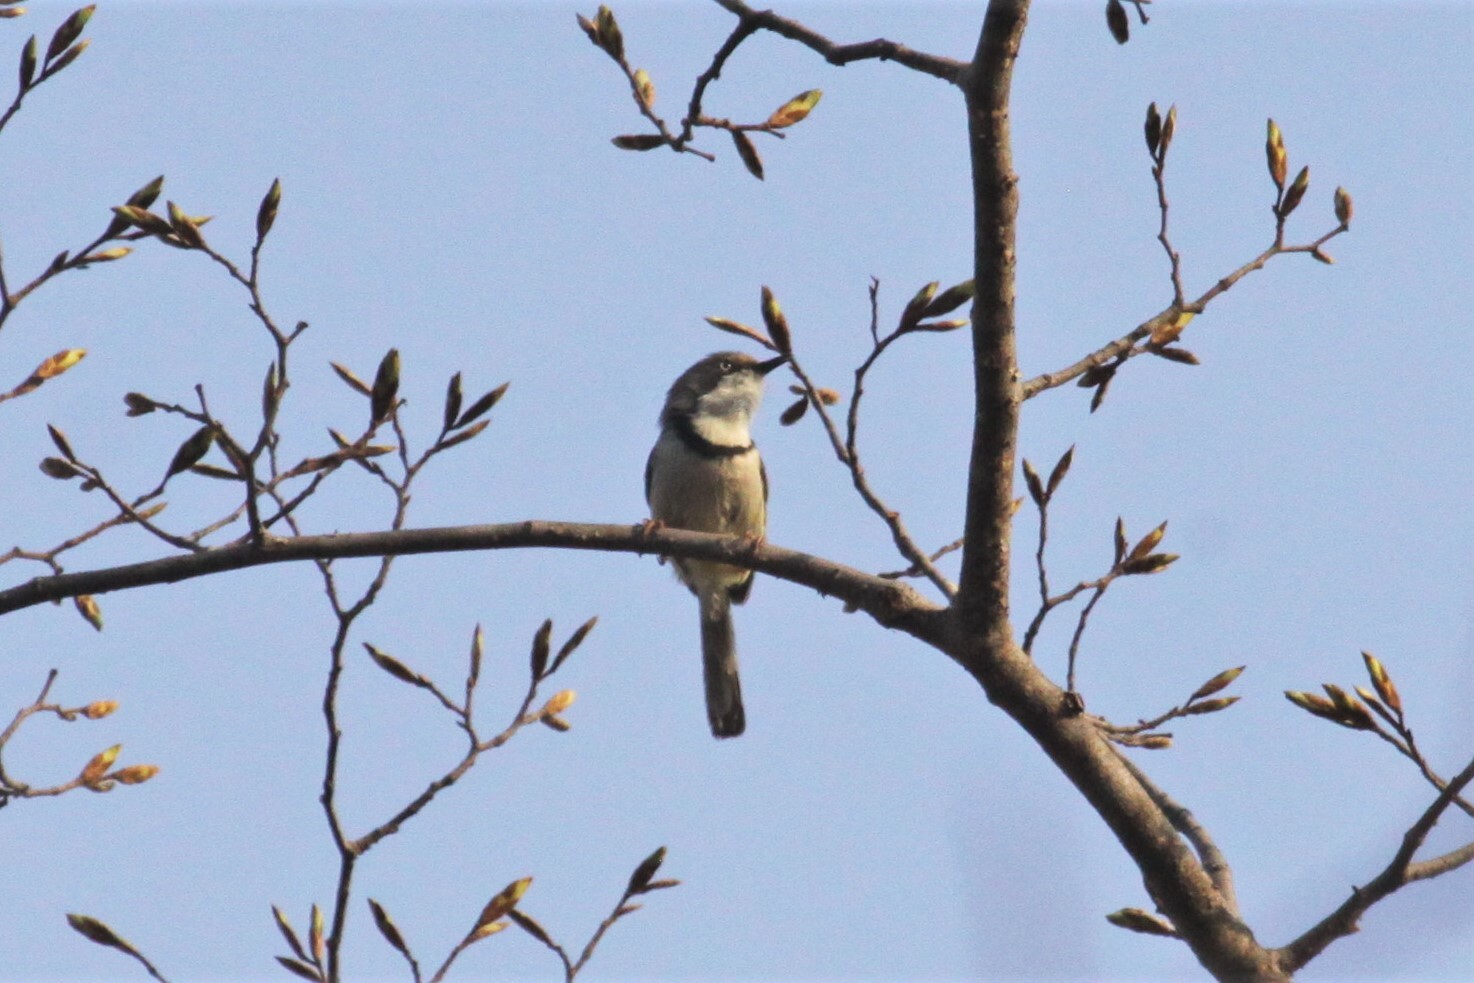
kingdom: Animalia
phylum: Chordata
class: Aves
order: Passeriformes
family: Cisticolidae
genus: Apalis
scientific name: Apalis thoracica
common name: Bar-throated apalis
